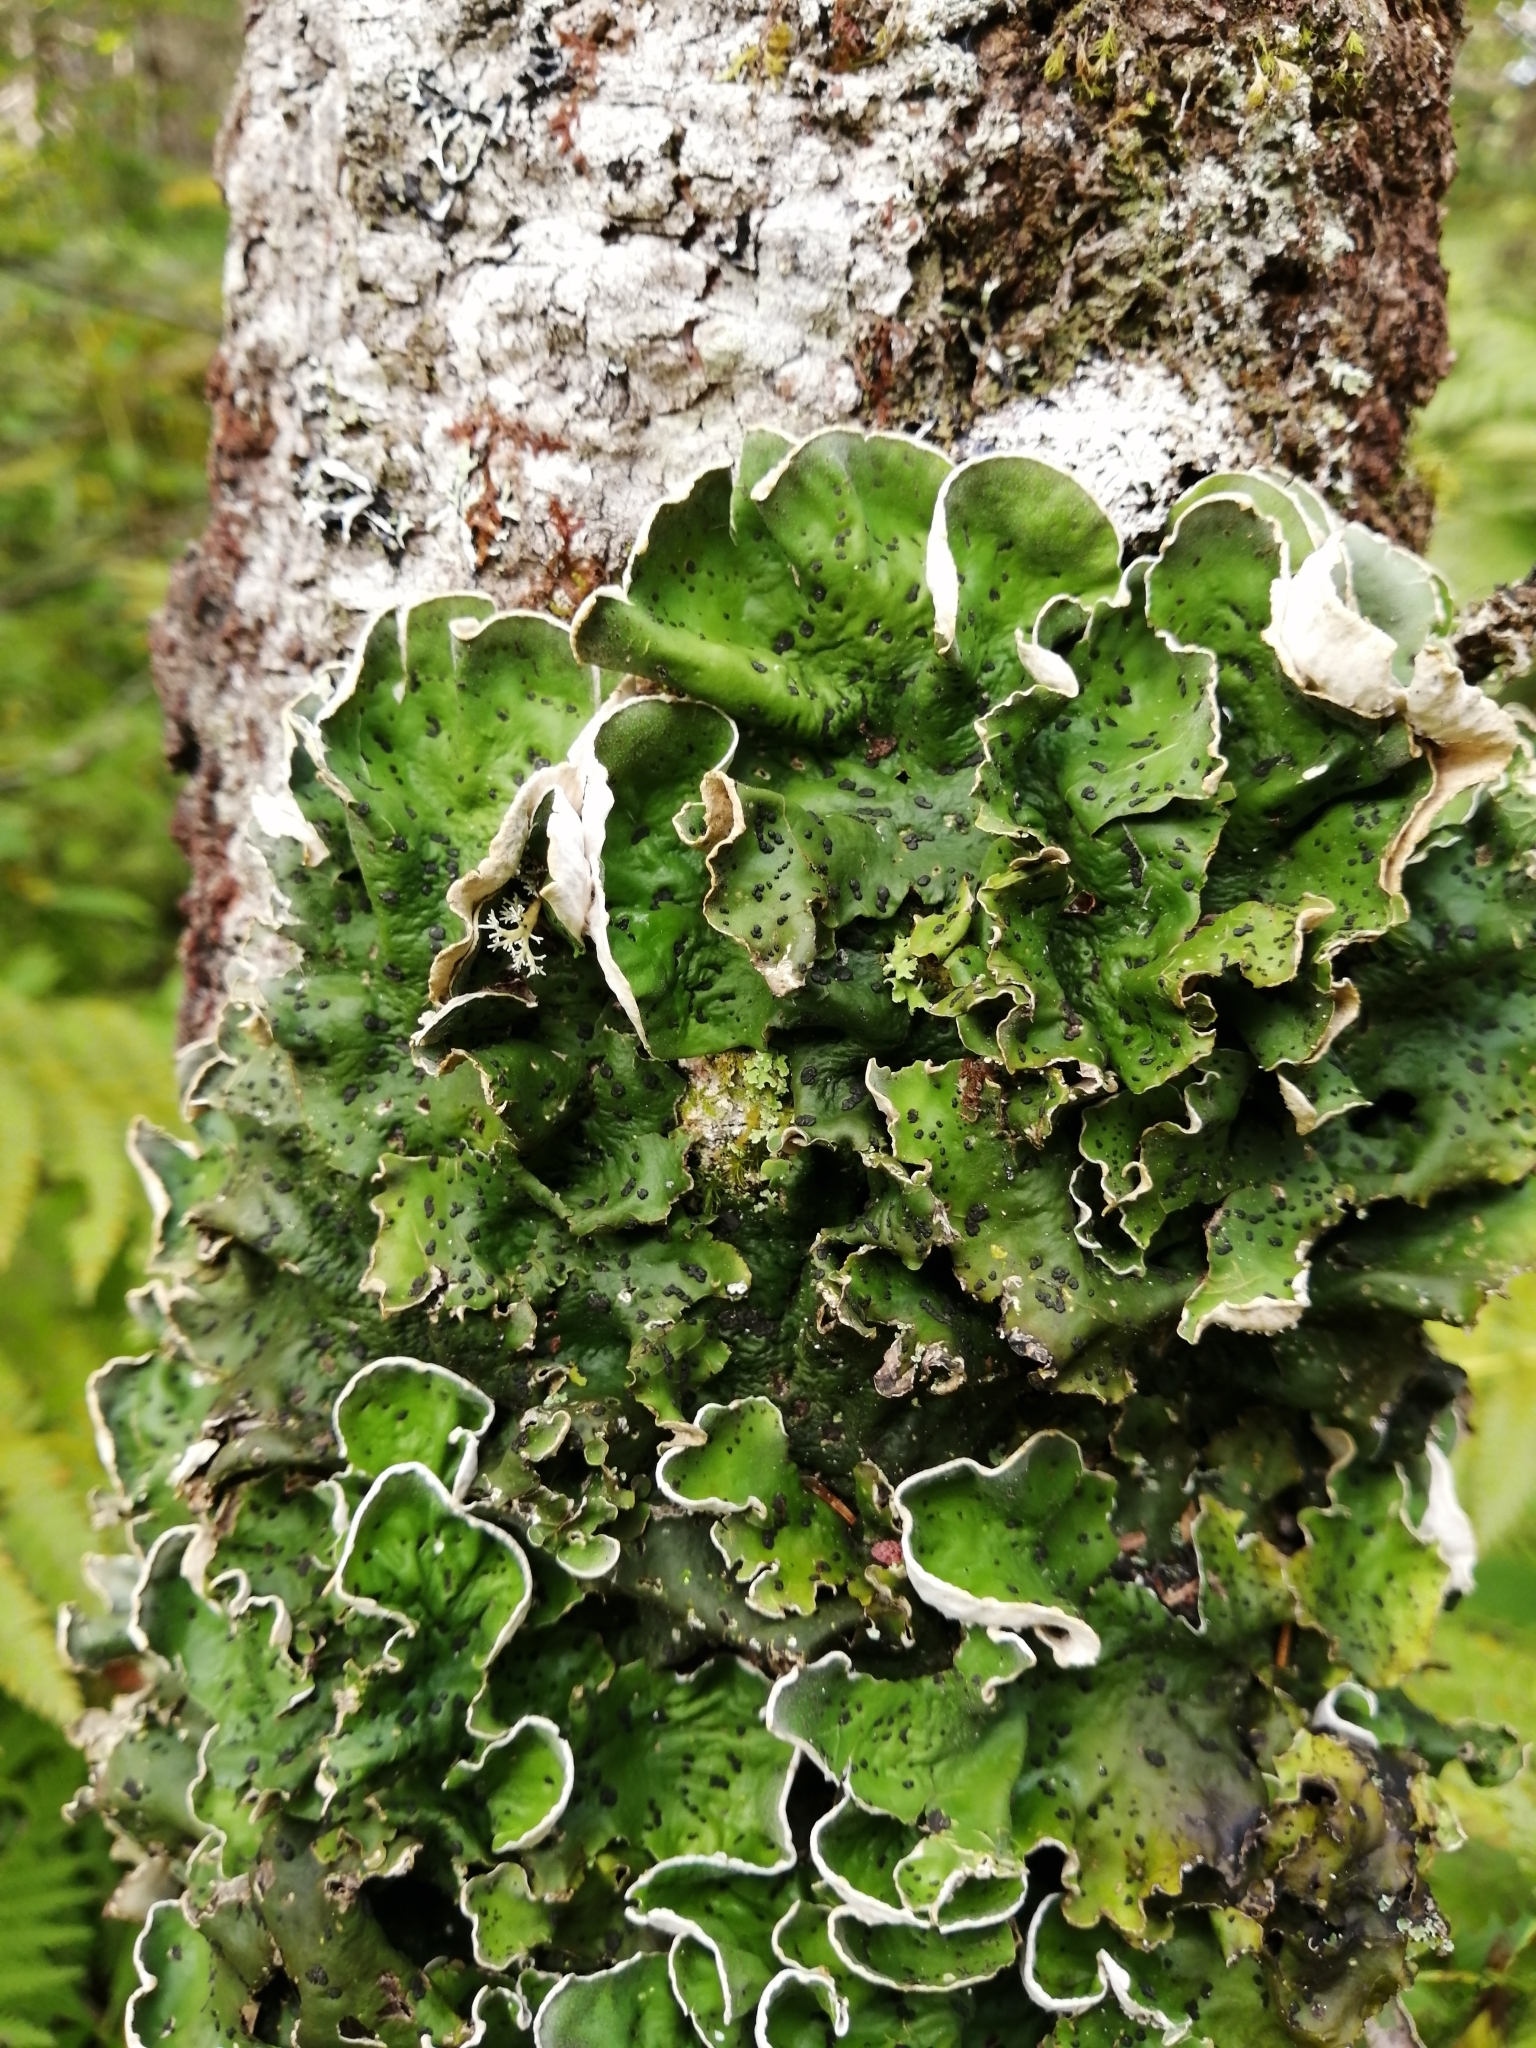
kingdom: Fungi
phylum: Ascomycota
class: Lecanoromycetes
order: Peltigerales
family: Peltigeraceae
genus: Peltigera
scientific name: Peltigera aphthosa
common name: Common freckle pelt lichen
